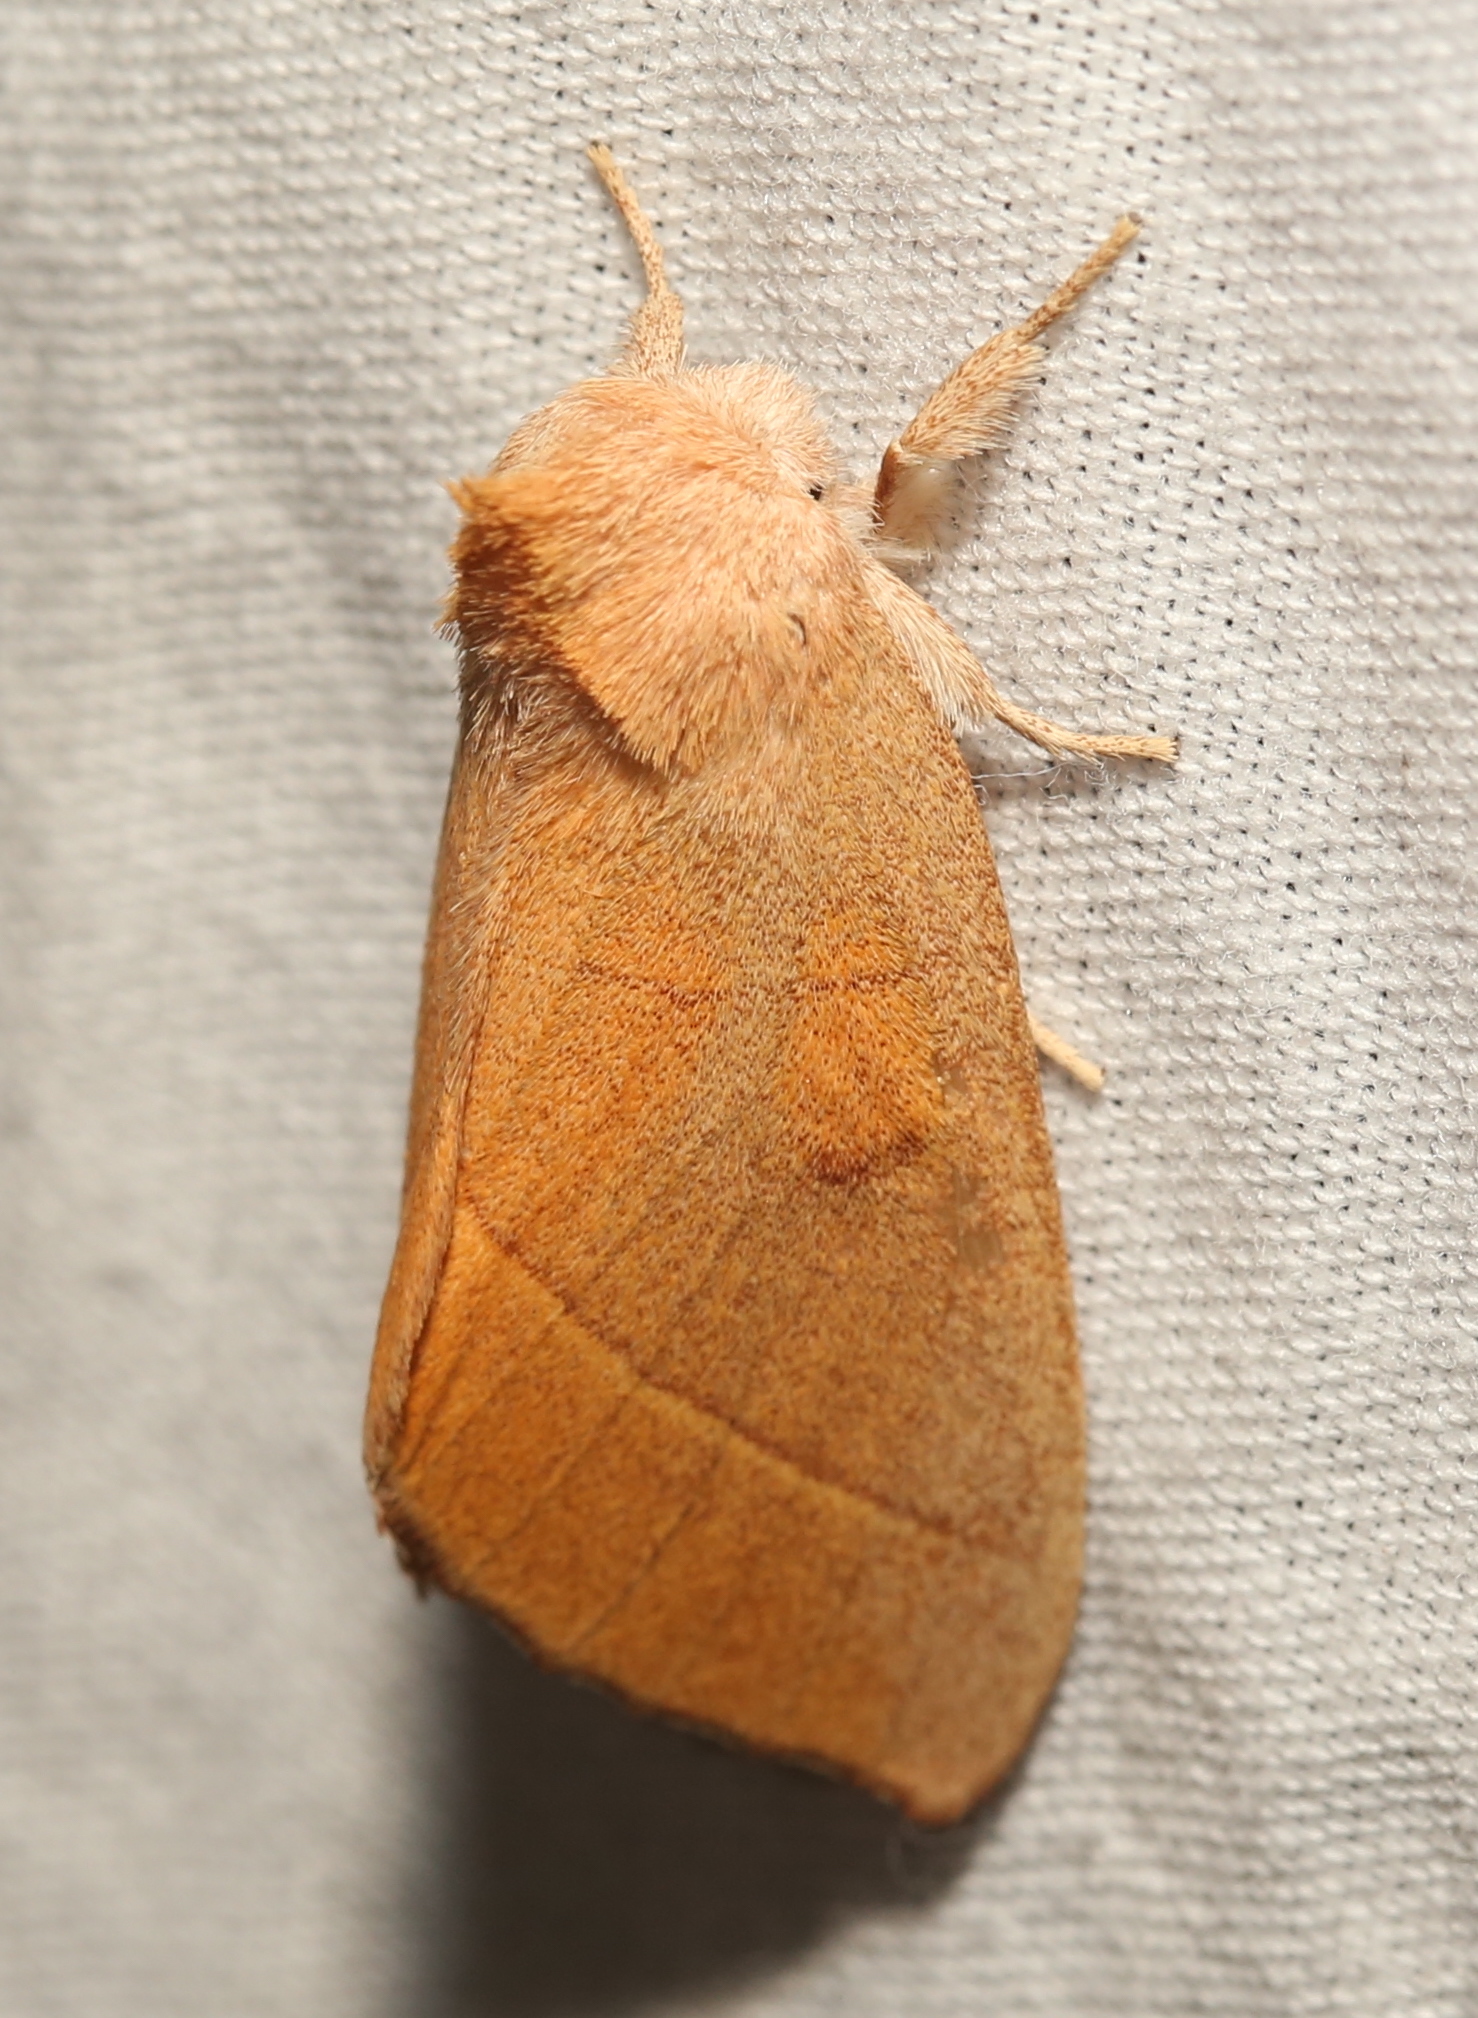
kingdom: Animalia
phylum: Arthropoda
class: Insecta
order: Lepidoptera
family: Notodontidae
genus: Nadata
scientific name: Nadata gibbosa
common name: White-dotted prominent
